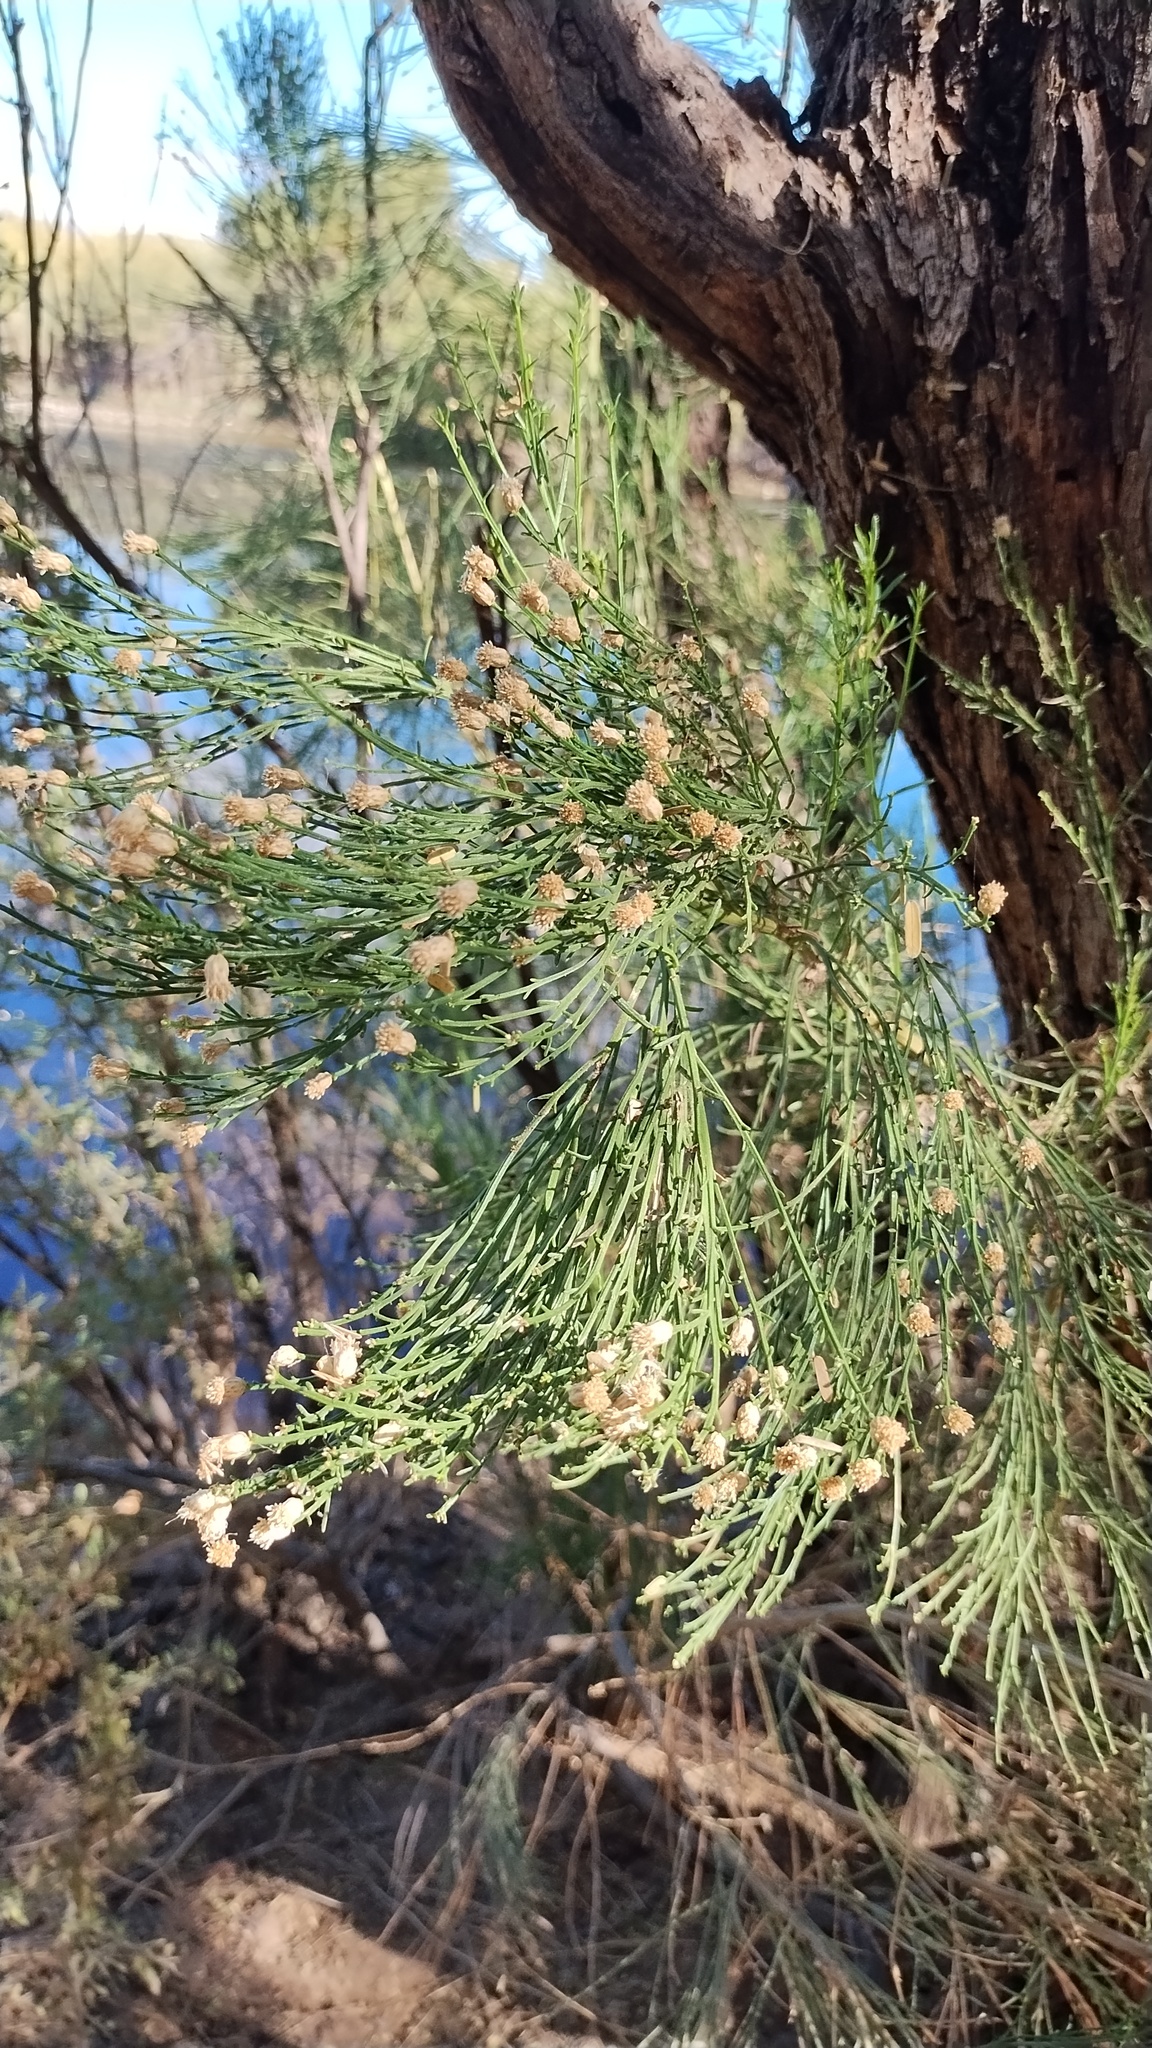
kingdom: Plantae
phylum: Tracheophyta
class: Magnoliopsida
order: Asterales
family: Asteraceae
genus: Baccharis
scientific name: Baccharis sarothroides
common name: Desert-broom
